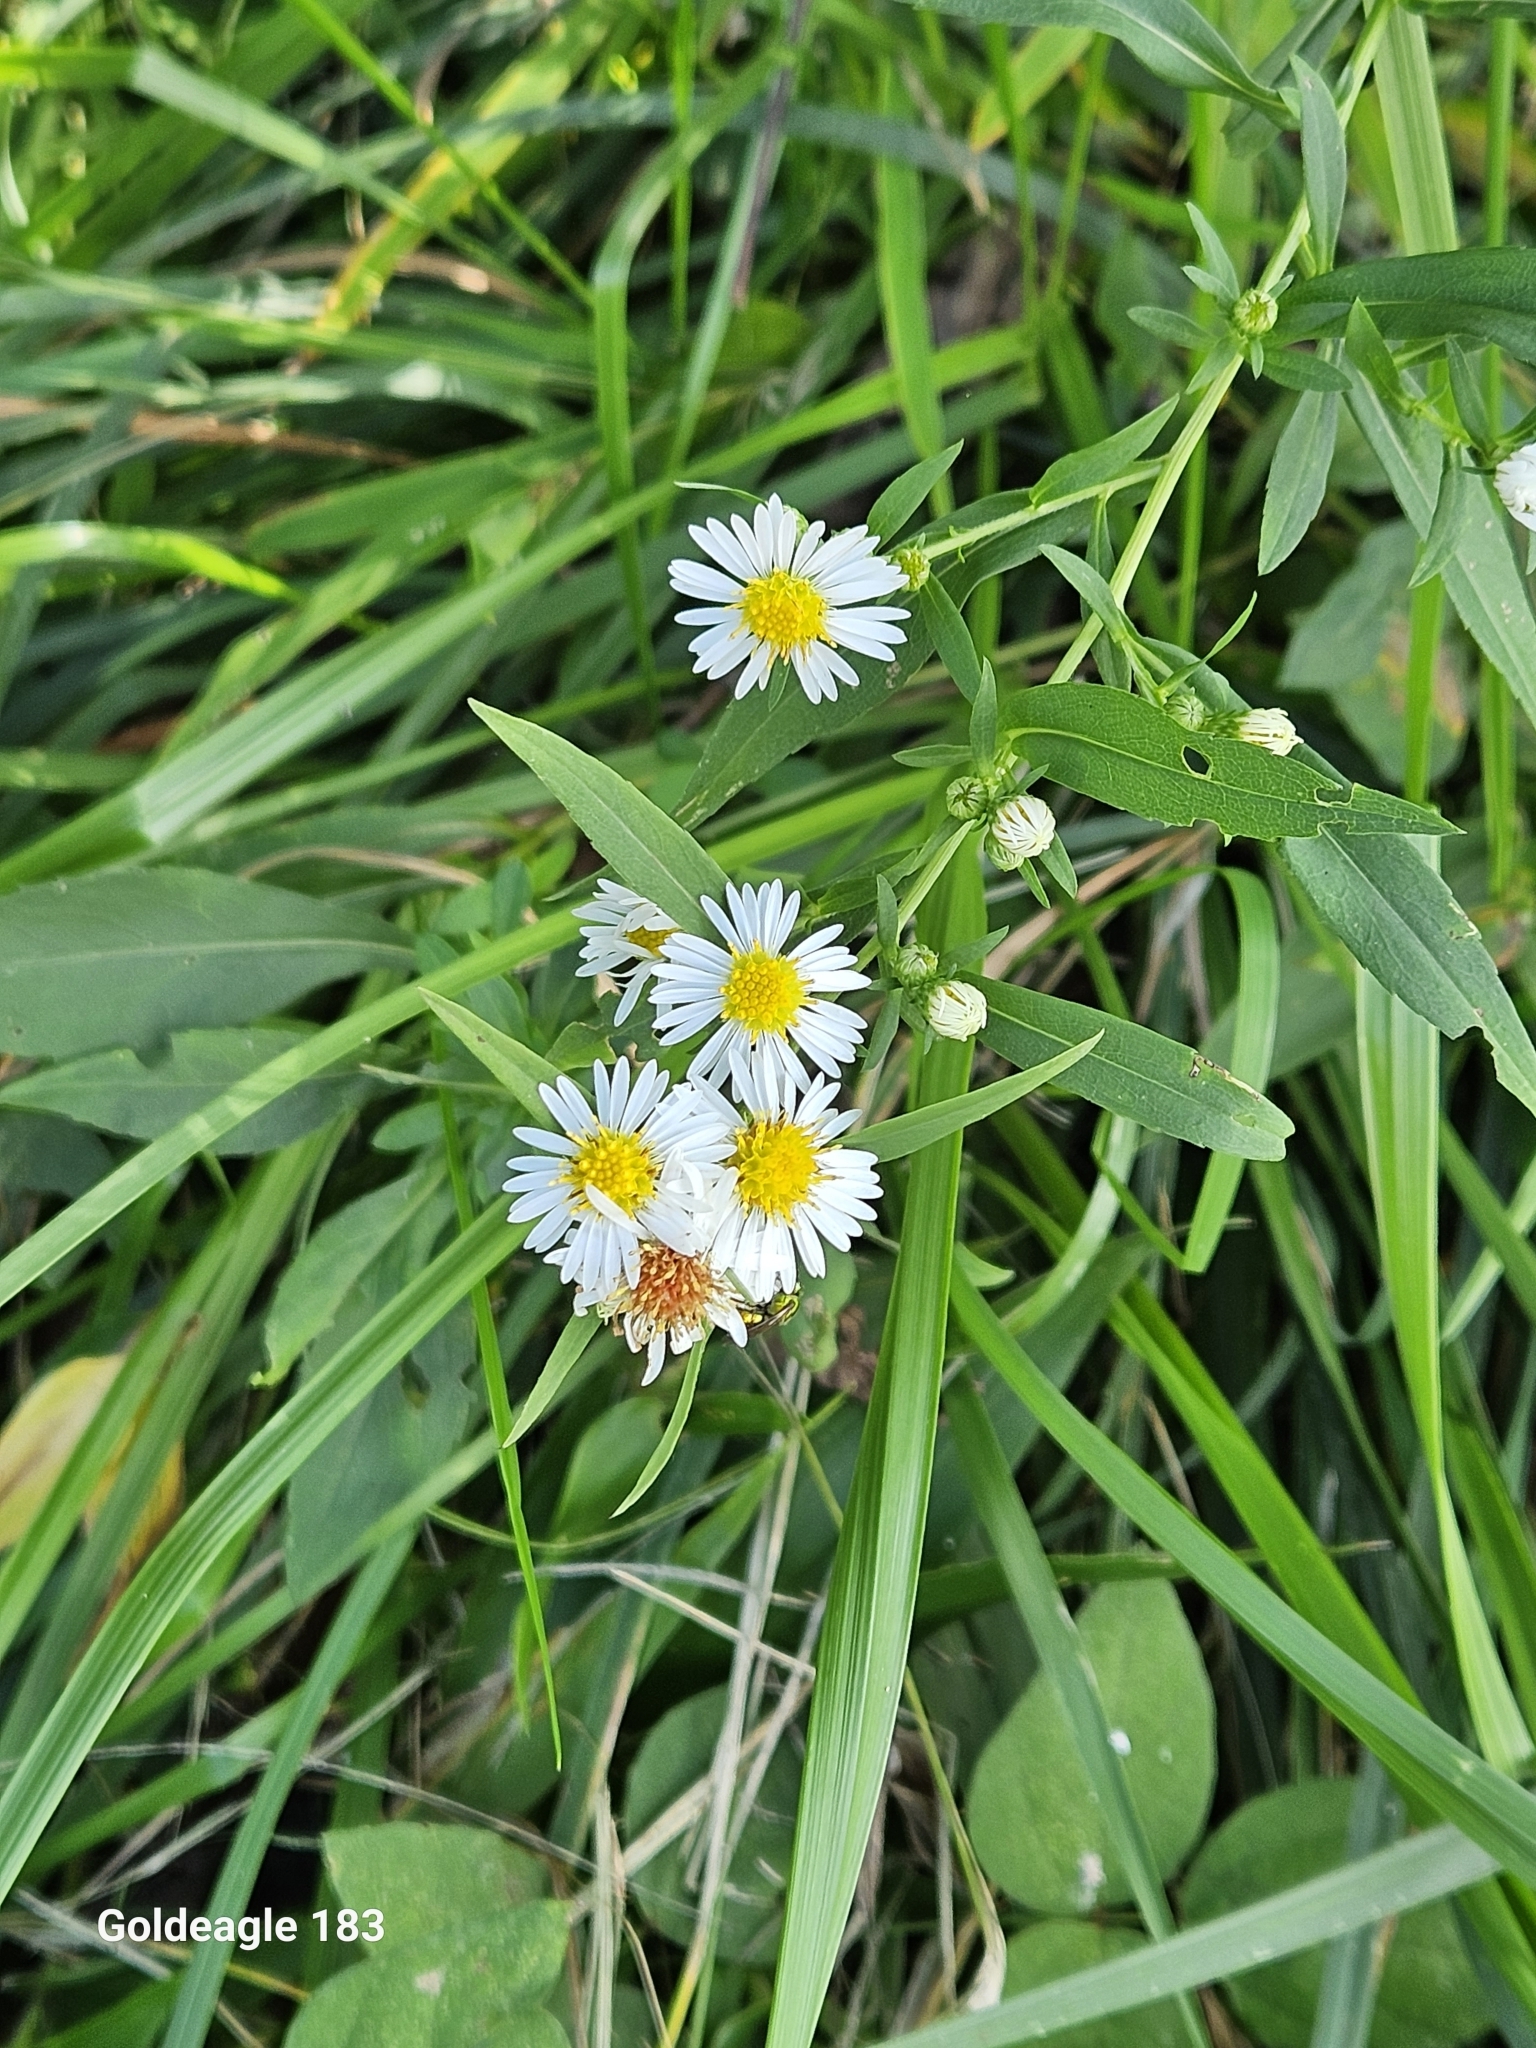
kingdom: Plantae
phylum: Tracheophyta
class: Magnoliopsida
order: Asterales
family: Asteraceae
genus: Erigeron
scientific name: Erigeron strigosus
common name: Common eastern fleabane
